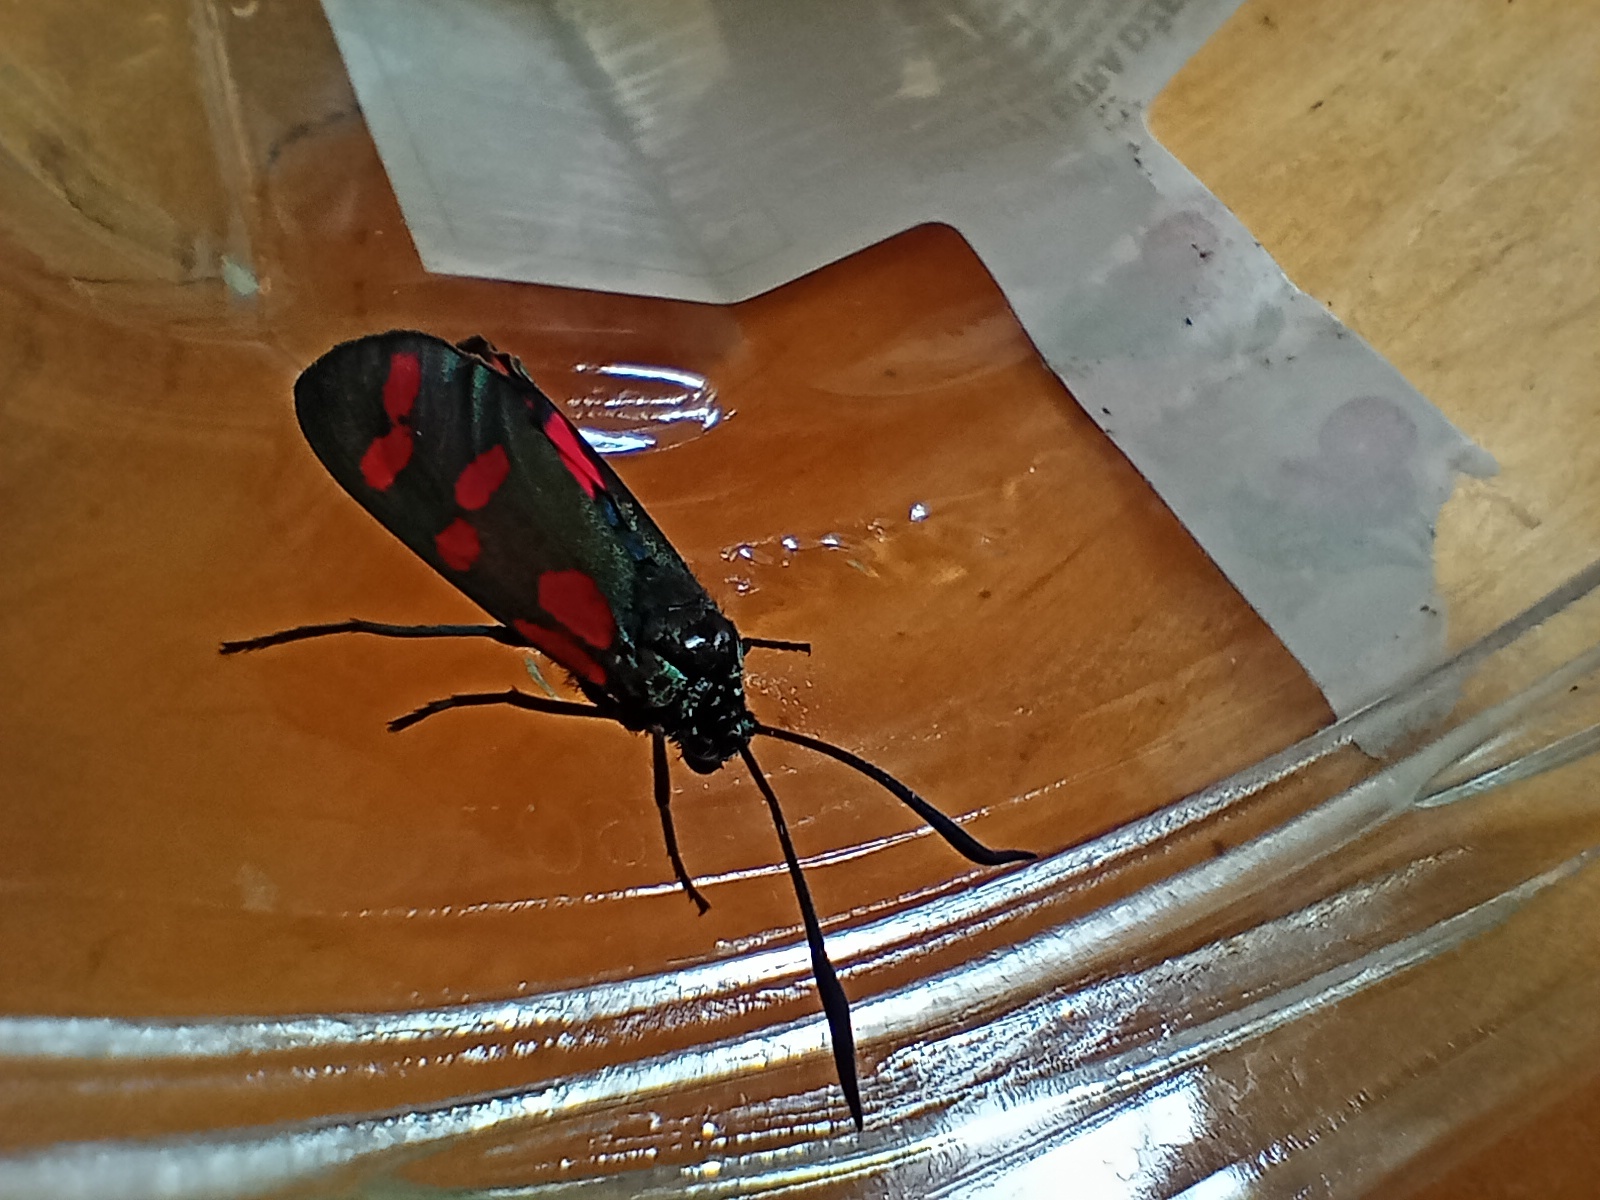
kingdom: Animalia
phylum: Arthropoda
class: Insecta
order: Lepidoptera
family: Zygaenidae
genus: Zygaena
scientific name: Zygaena filipendulae
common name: Six-spot burnet
